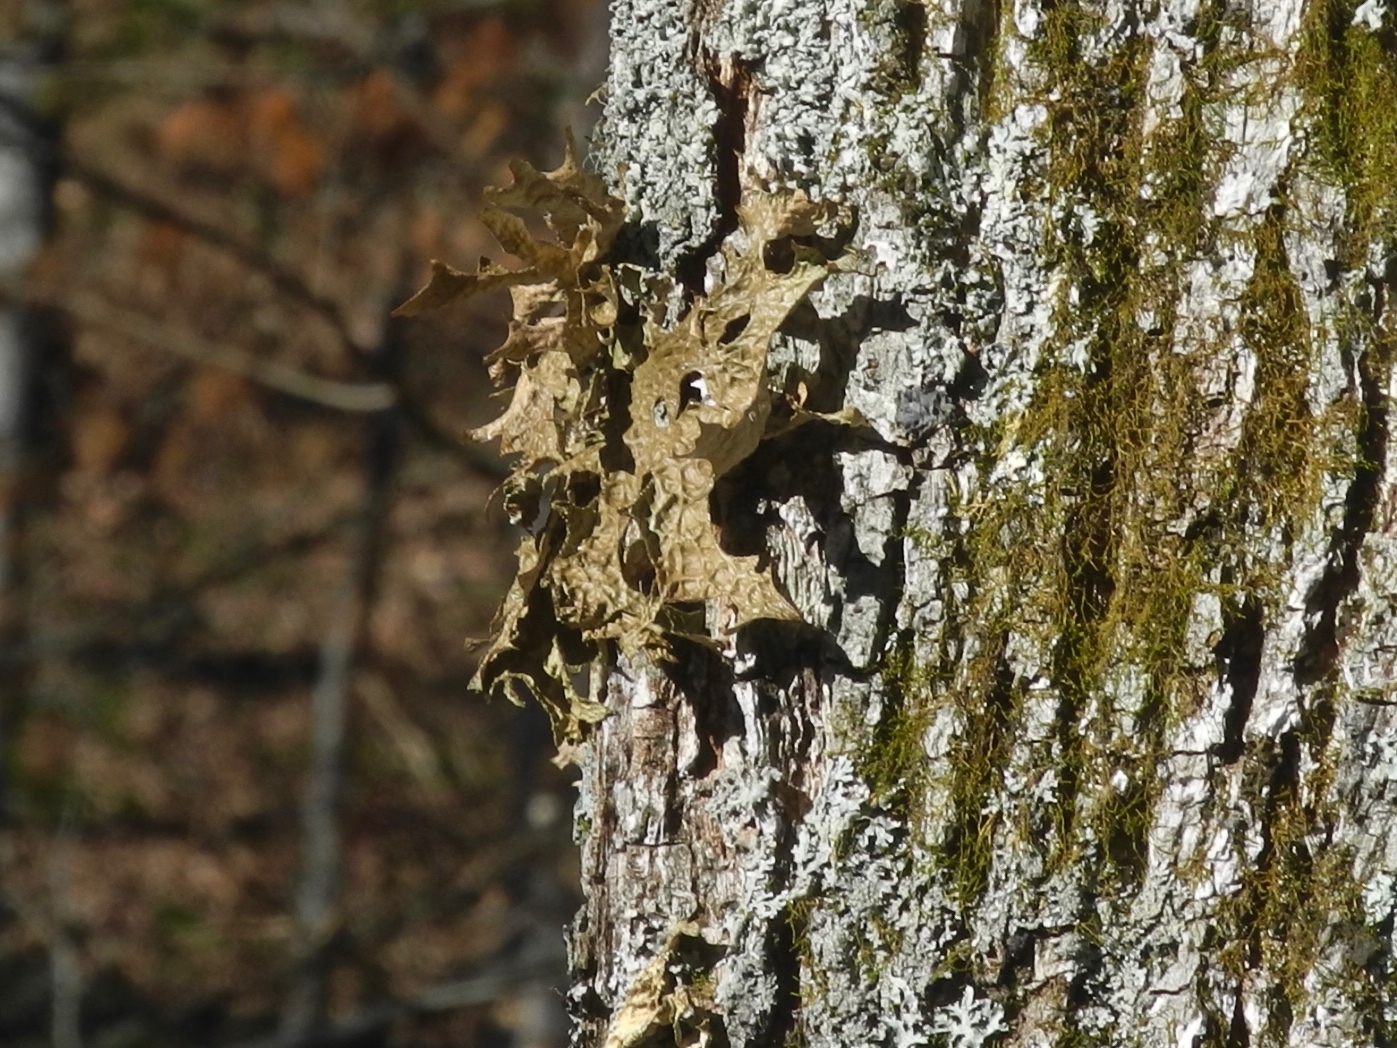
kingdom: Fungi
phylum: Ascomycota
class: Lecanoromycetes
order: Peltigerales
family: Lobariaceae
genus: Lobaria
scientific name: Lobaria pulmonaria
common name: Lungwort
